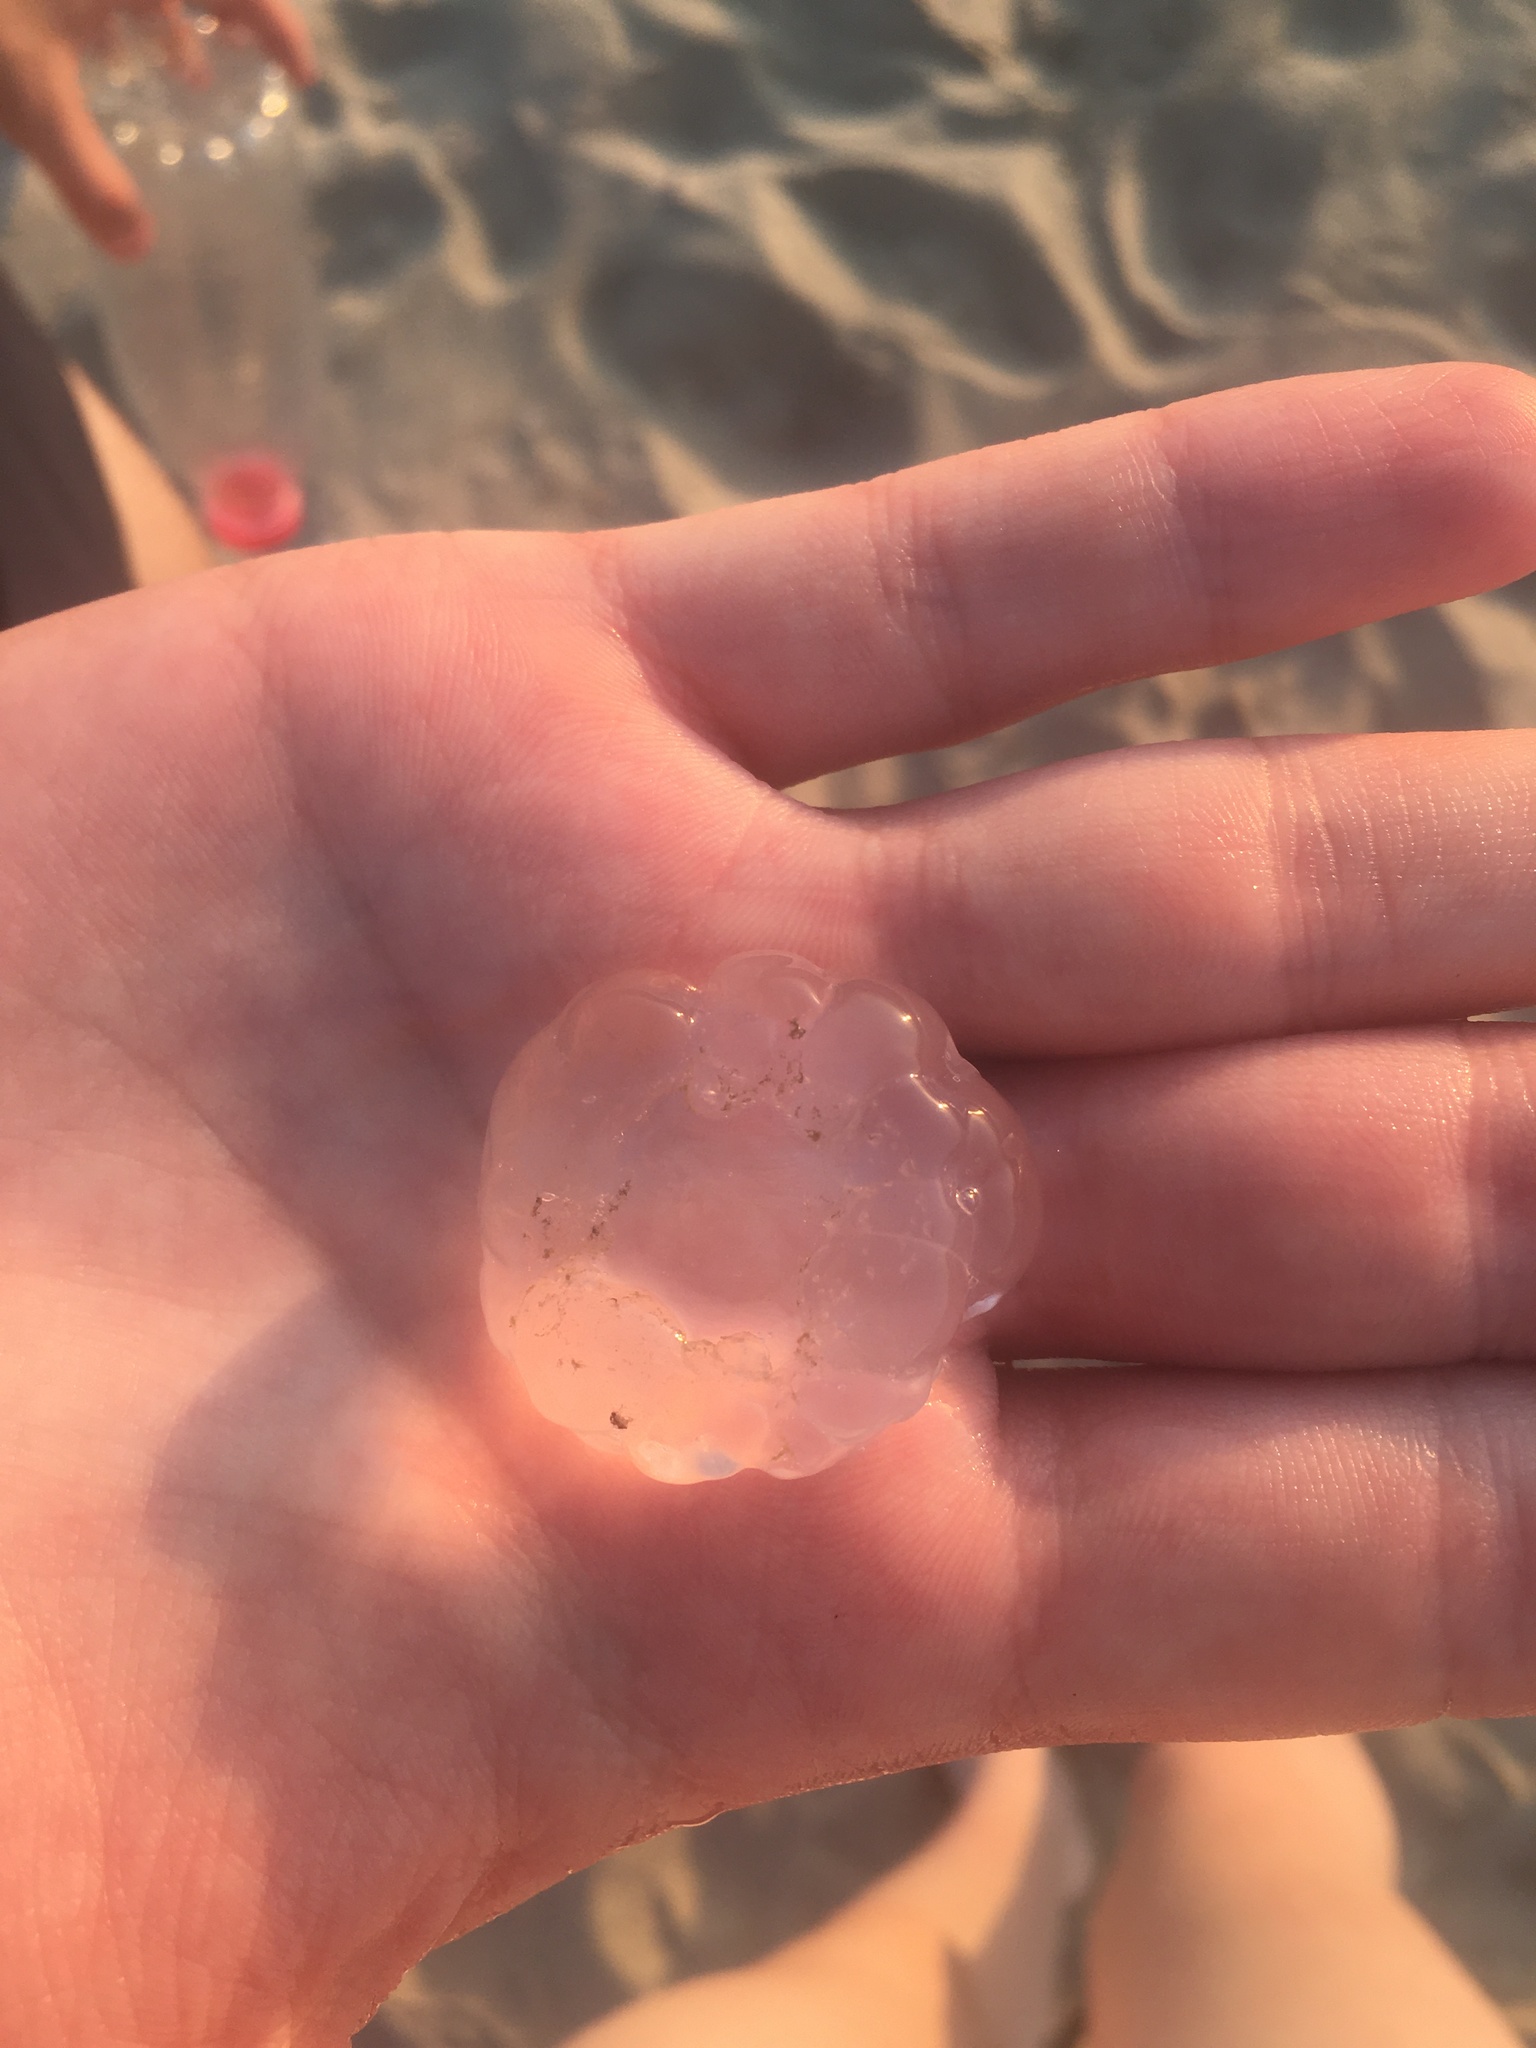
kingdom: Animalia
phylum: Cnidaria
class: Scyphozoa
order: Semaeostomeae
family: Ulmaridae
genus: Aurelia
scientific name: Aurelia aurita
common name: Moon jellyfish
